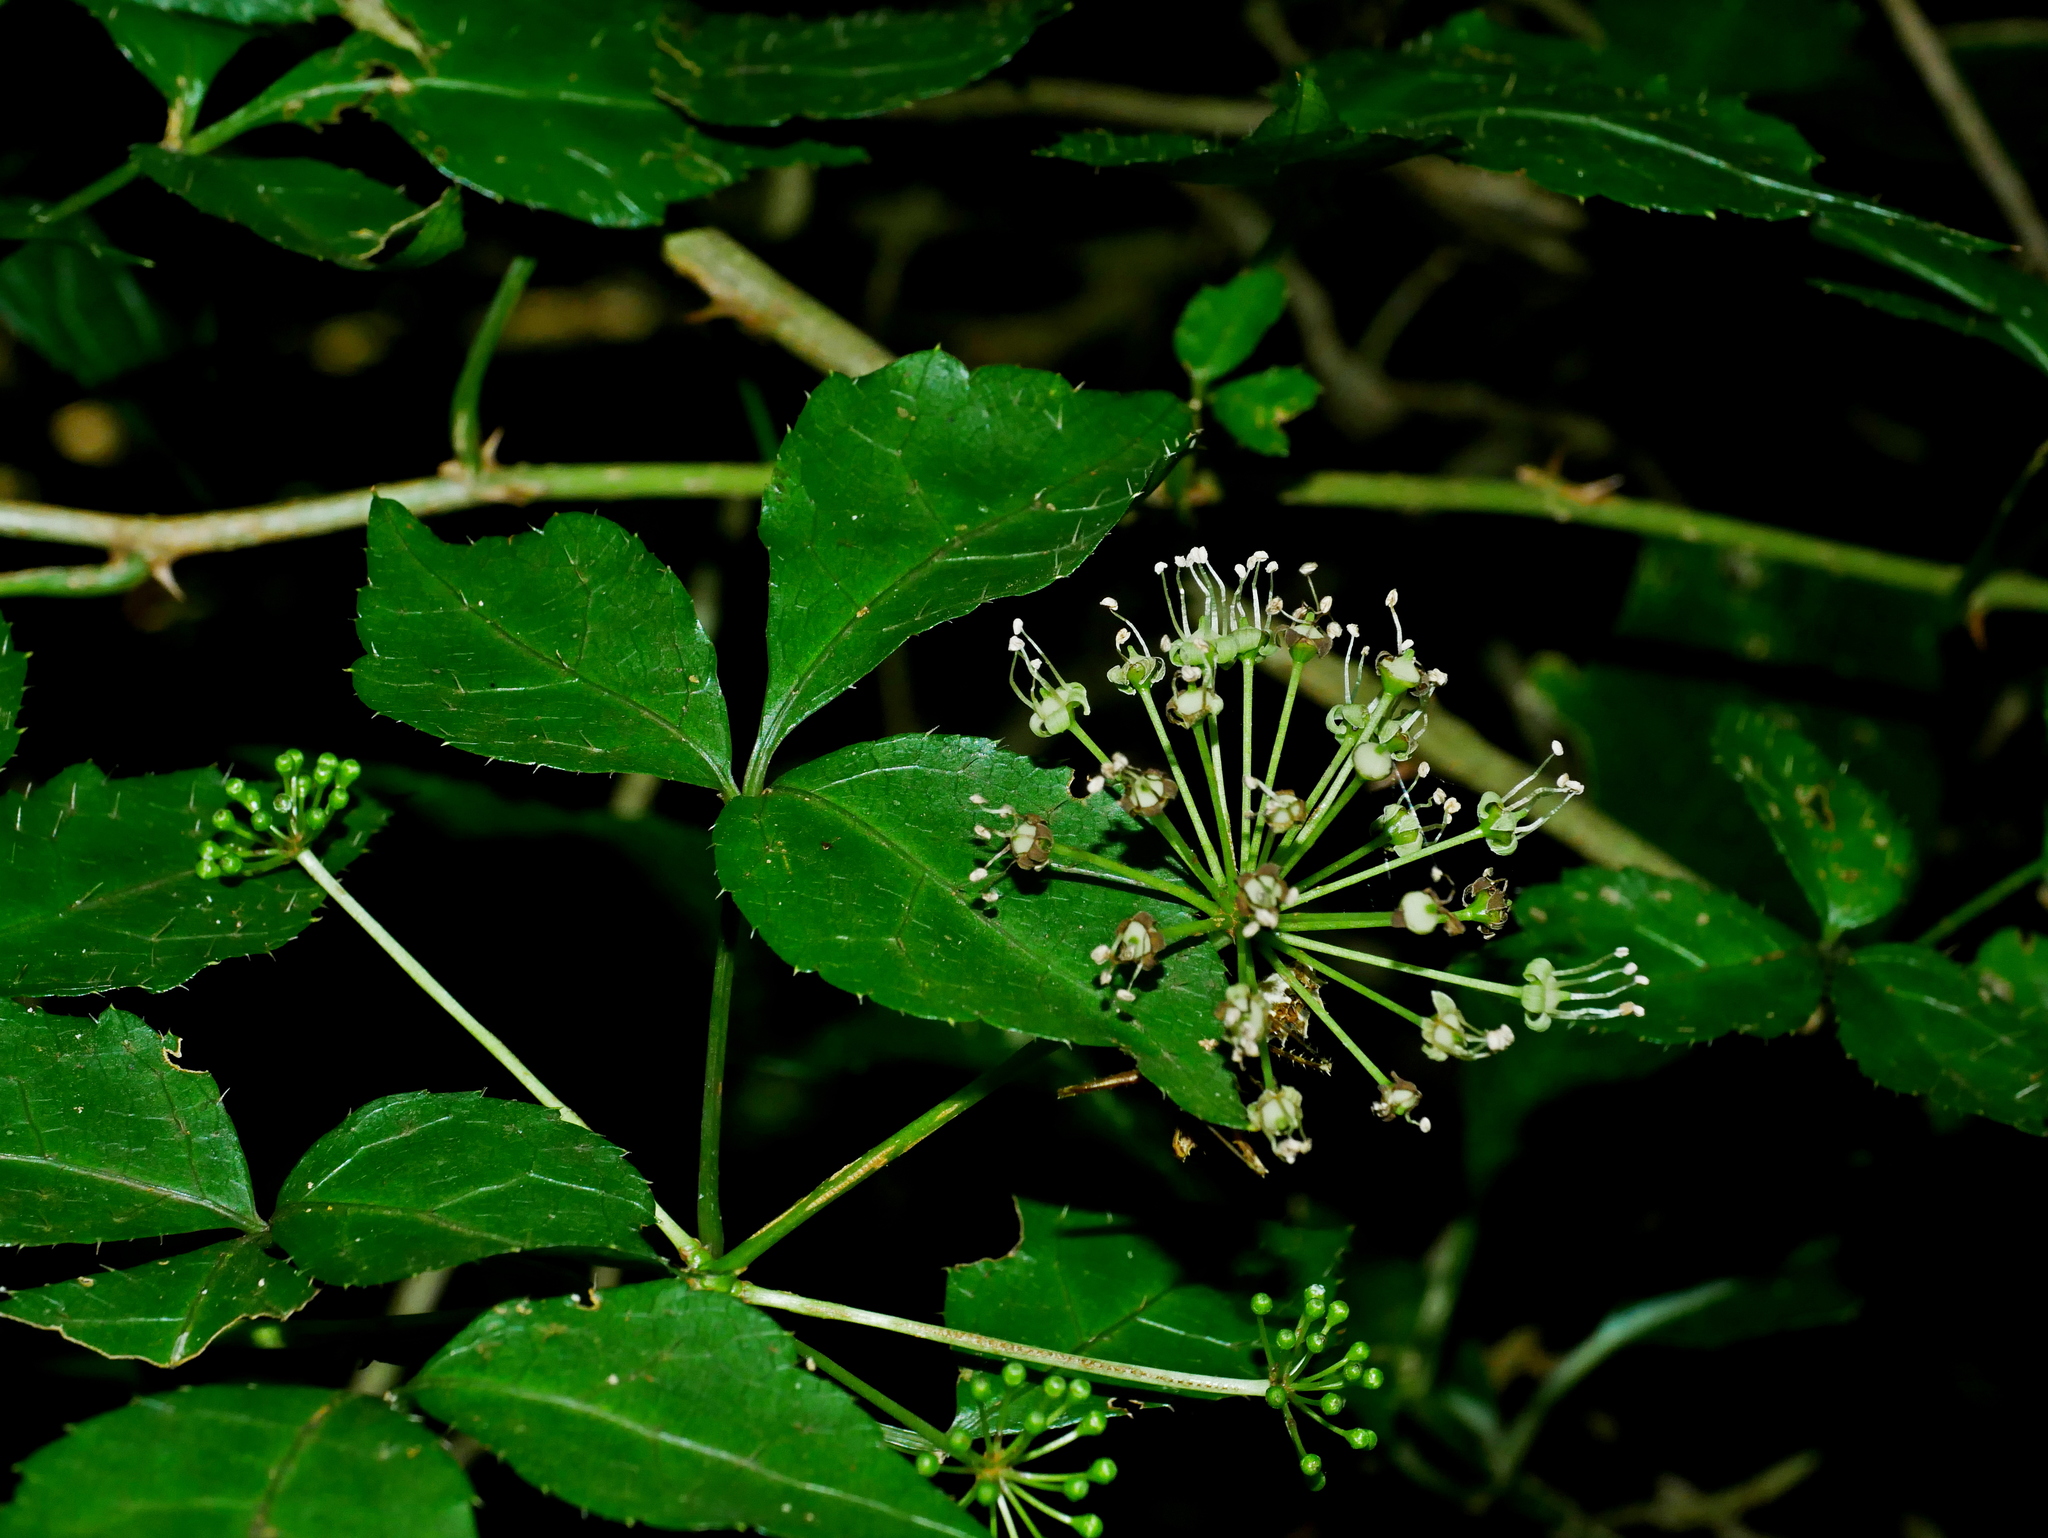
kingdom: Plantae
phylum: Tracheophyta
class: Magnoliopsida
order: Apiales
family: Araliaceae
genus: Eleutherococcus
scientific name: Eleutherococcus setosus
